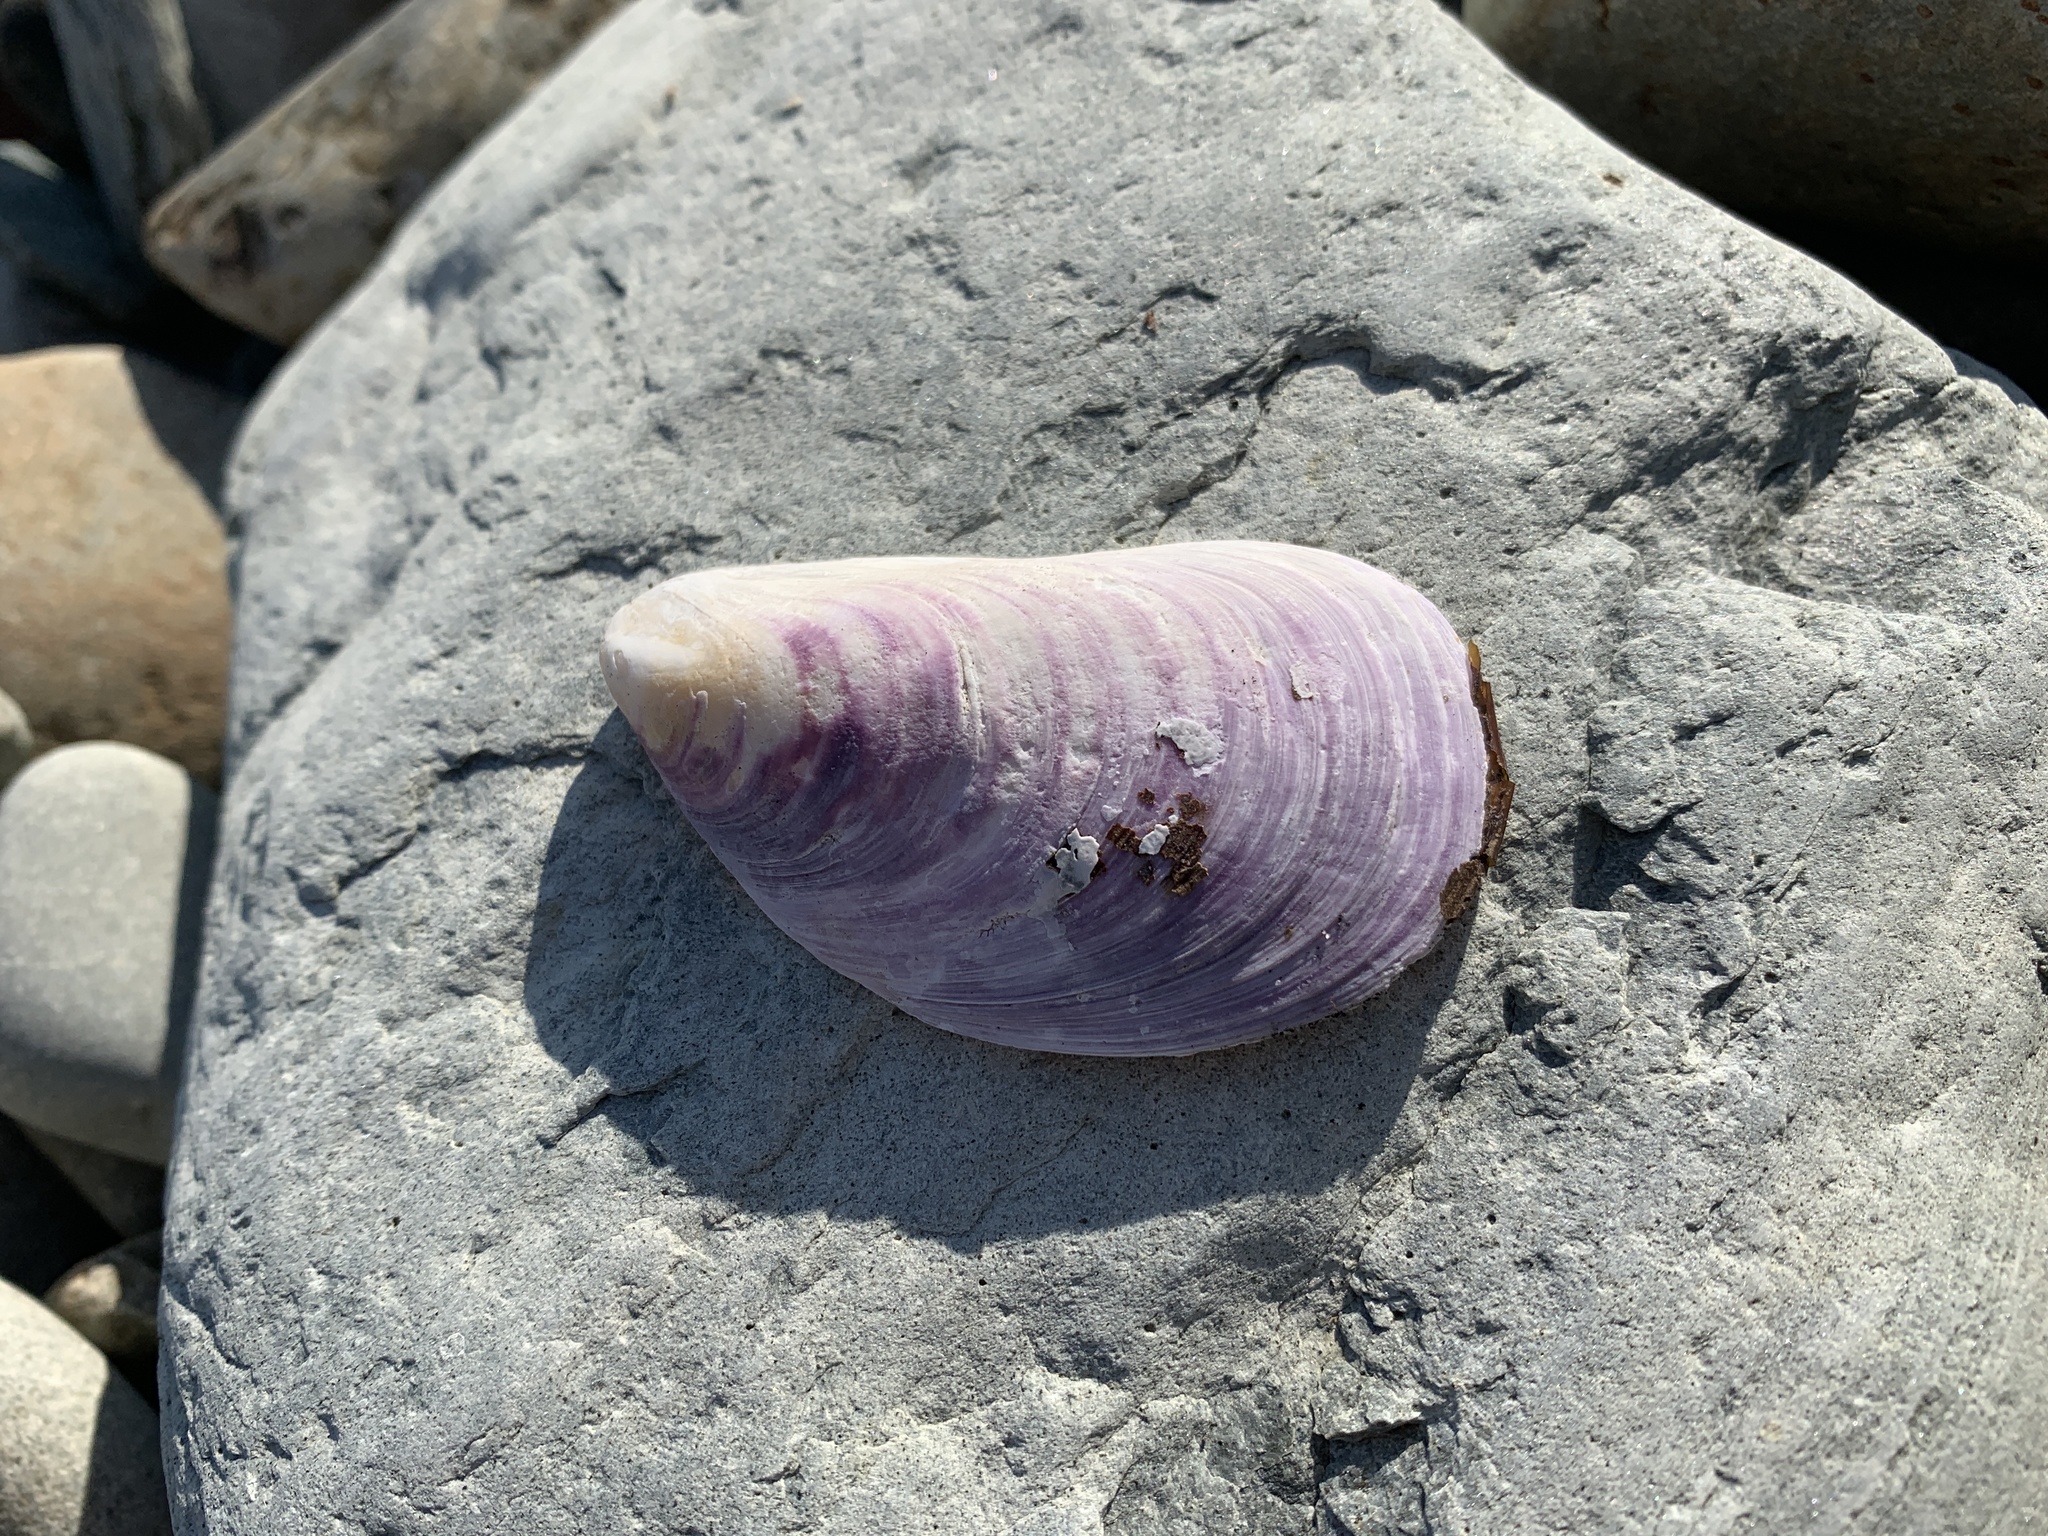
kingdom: Animalia
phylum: Mollusca
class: Bivalvia
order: Mytilida
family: Mytilidae
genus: Modiolus
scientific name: Modiolus modiolus
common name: Horse-mussel
